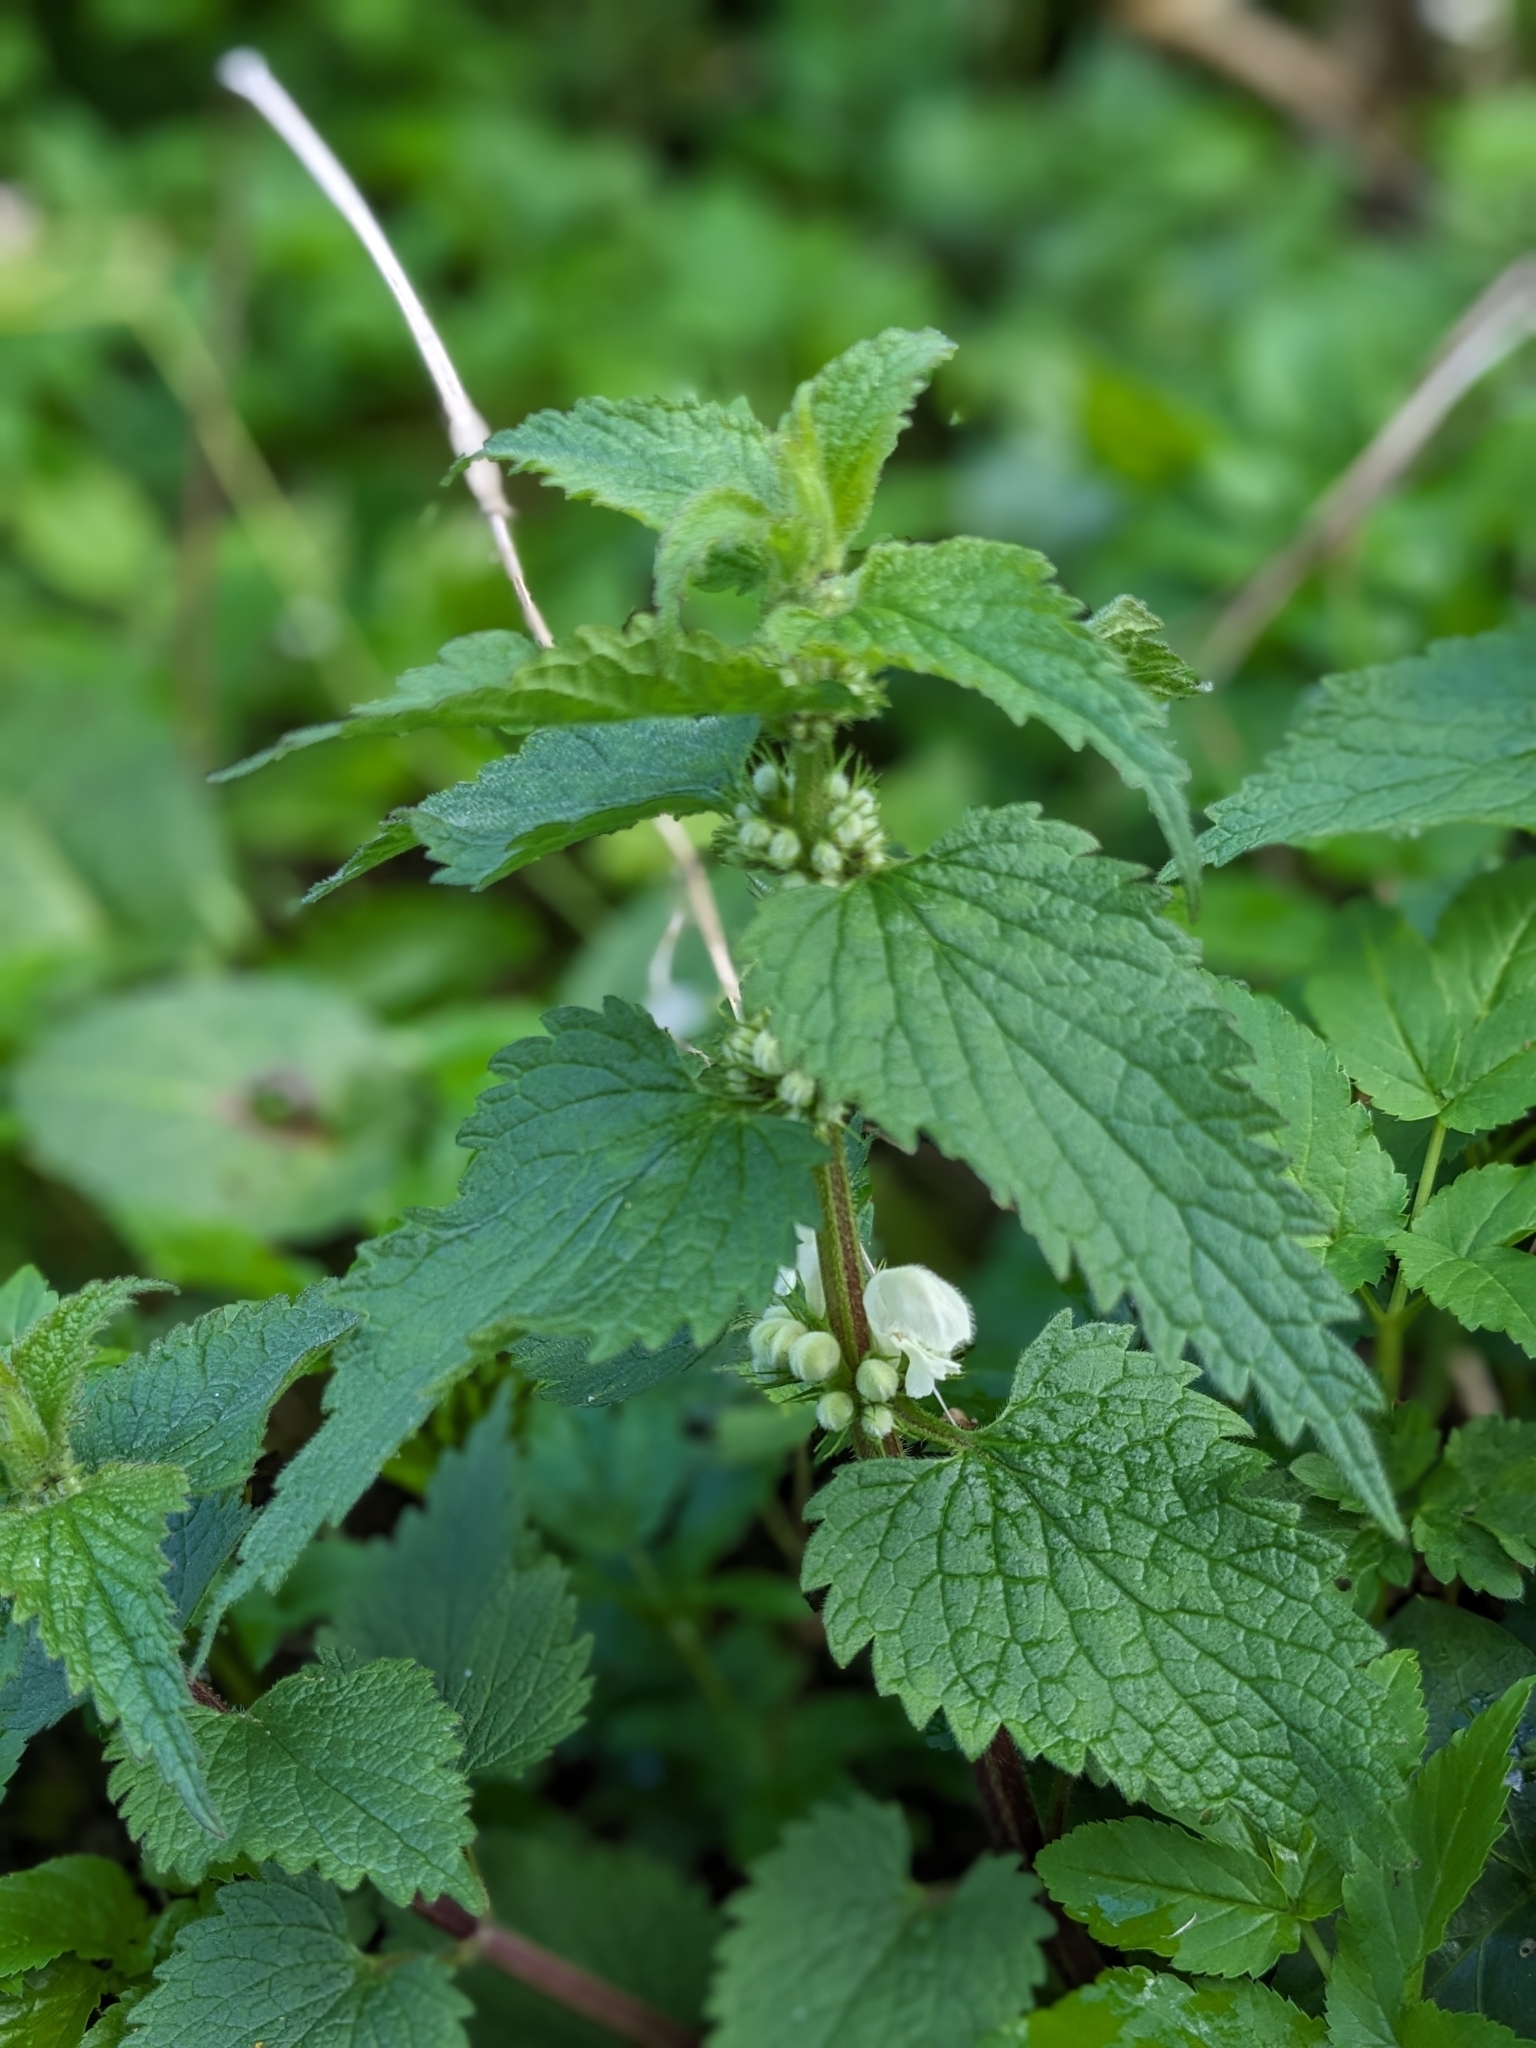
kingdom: Plantae
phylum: Tracheophyta
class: Magnoliopsida
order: Lamiales
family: Lamiaceae
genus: Lamium
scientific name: Lamium album
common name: White dead-nettle
